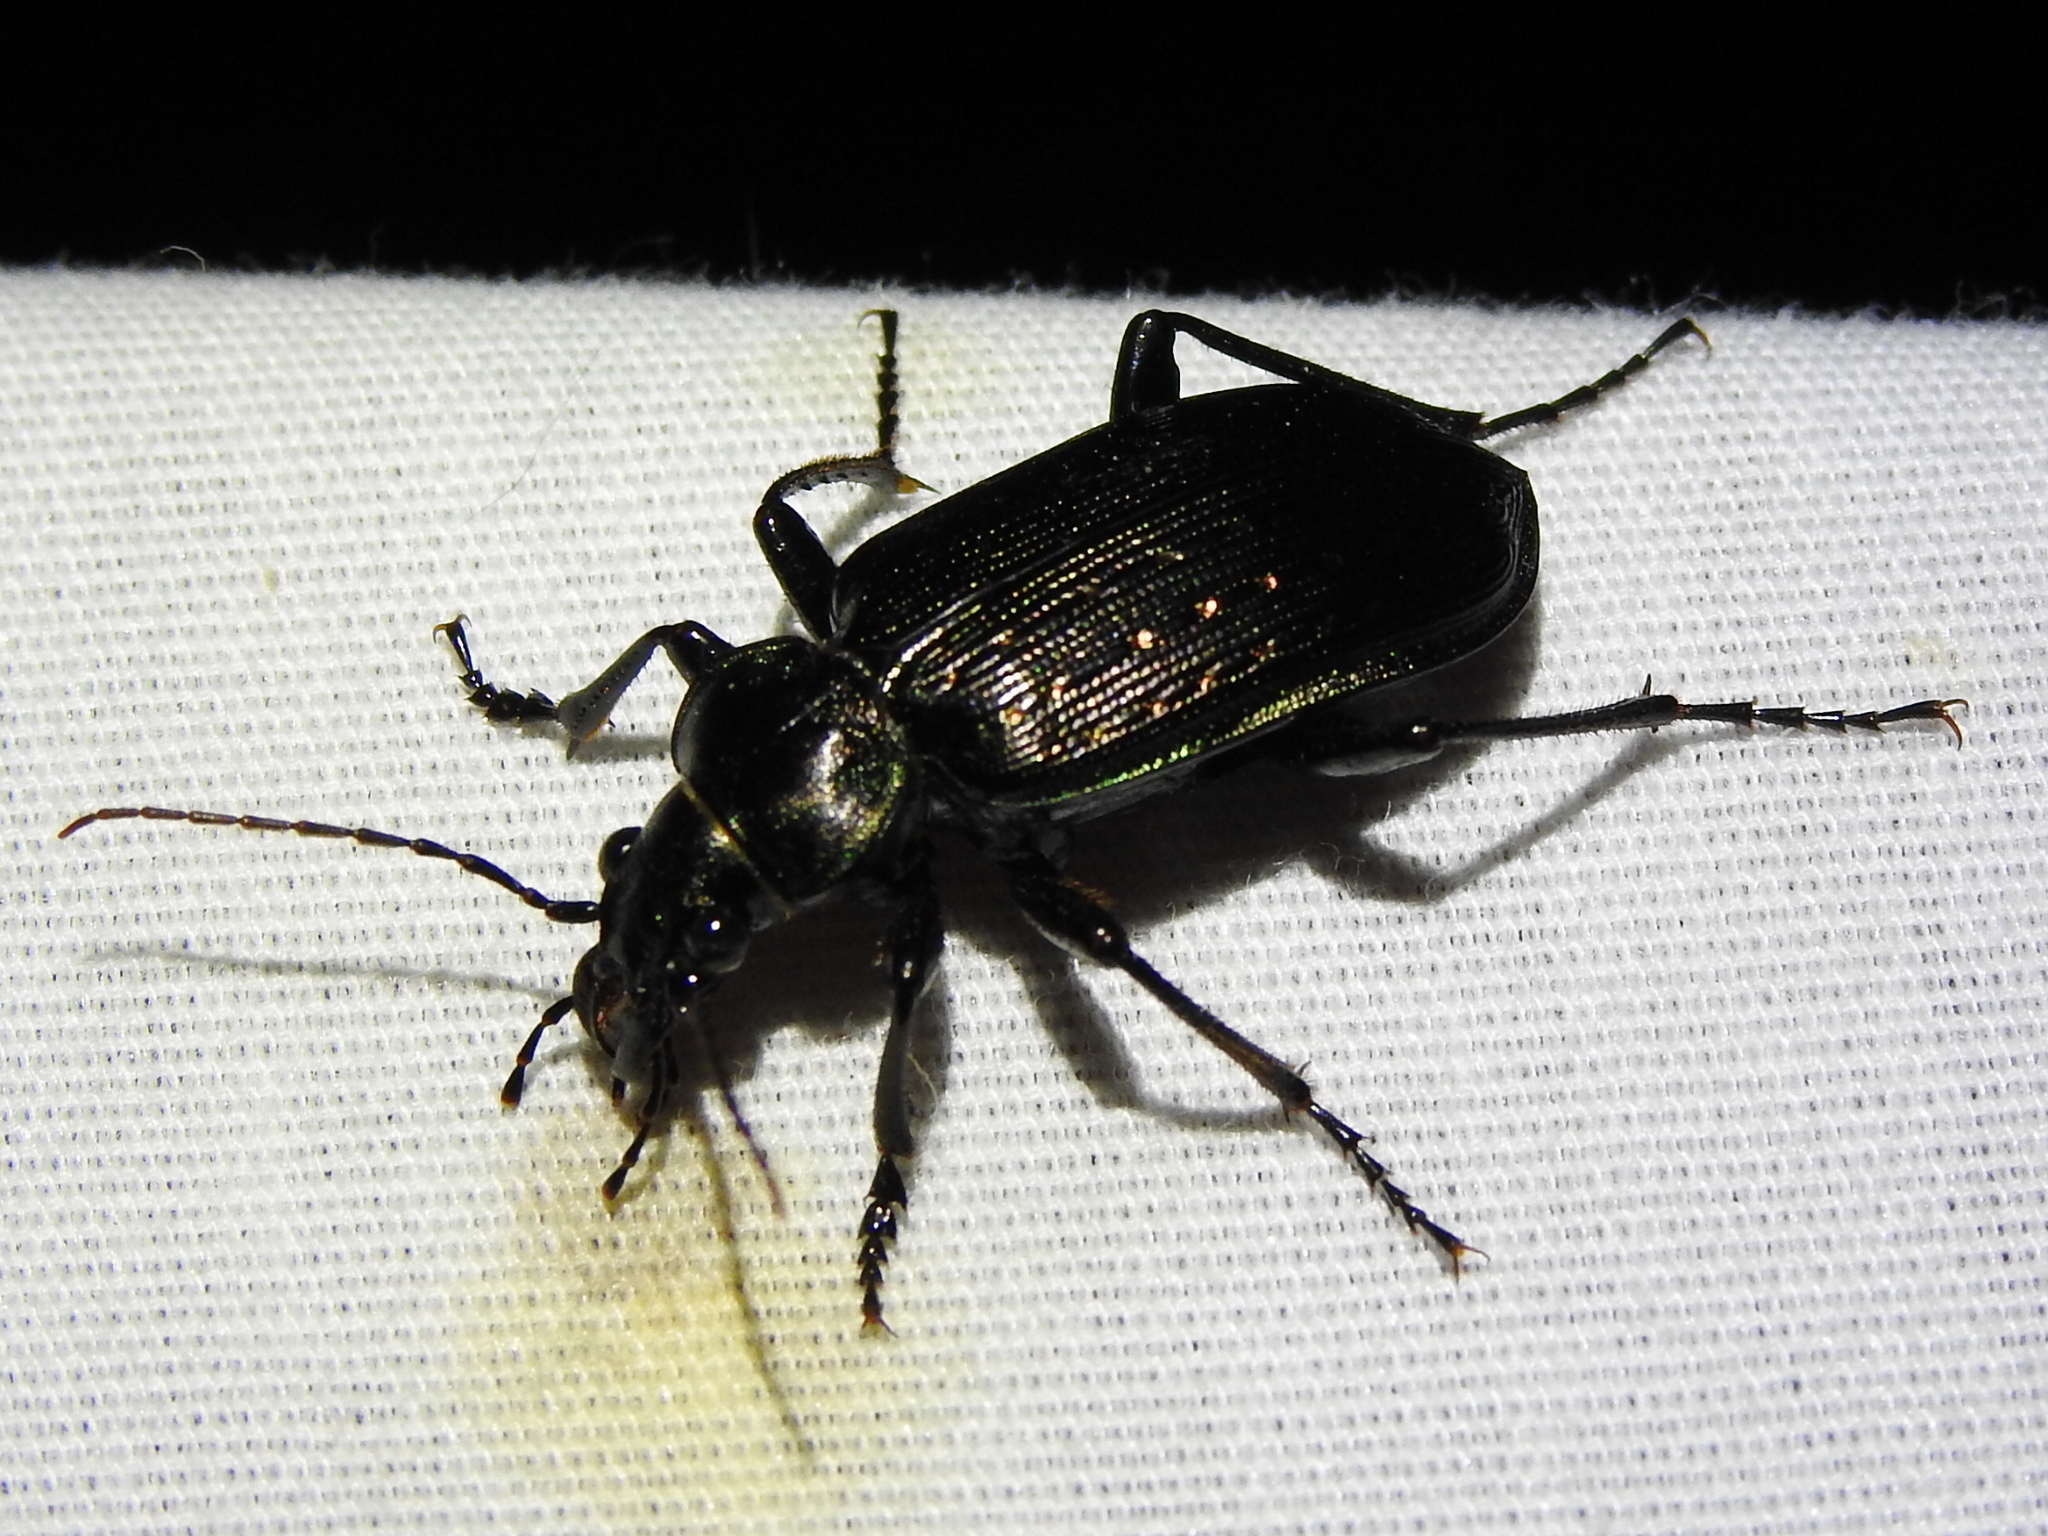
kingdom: Animalia
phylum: Arthropoda
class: Insecta
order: Coleoptera
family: Carabidae
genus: Calosoma
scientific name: Calosoma sayi
